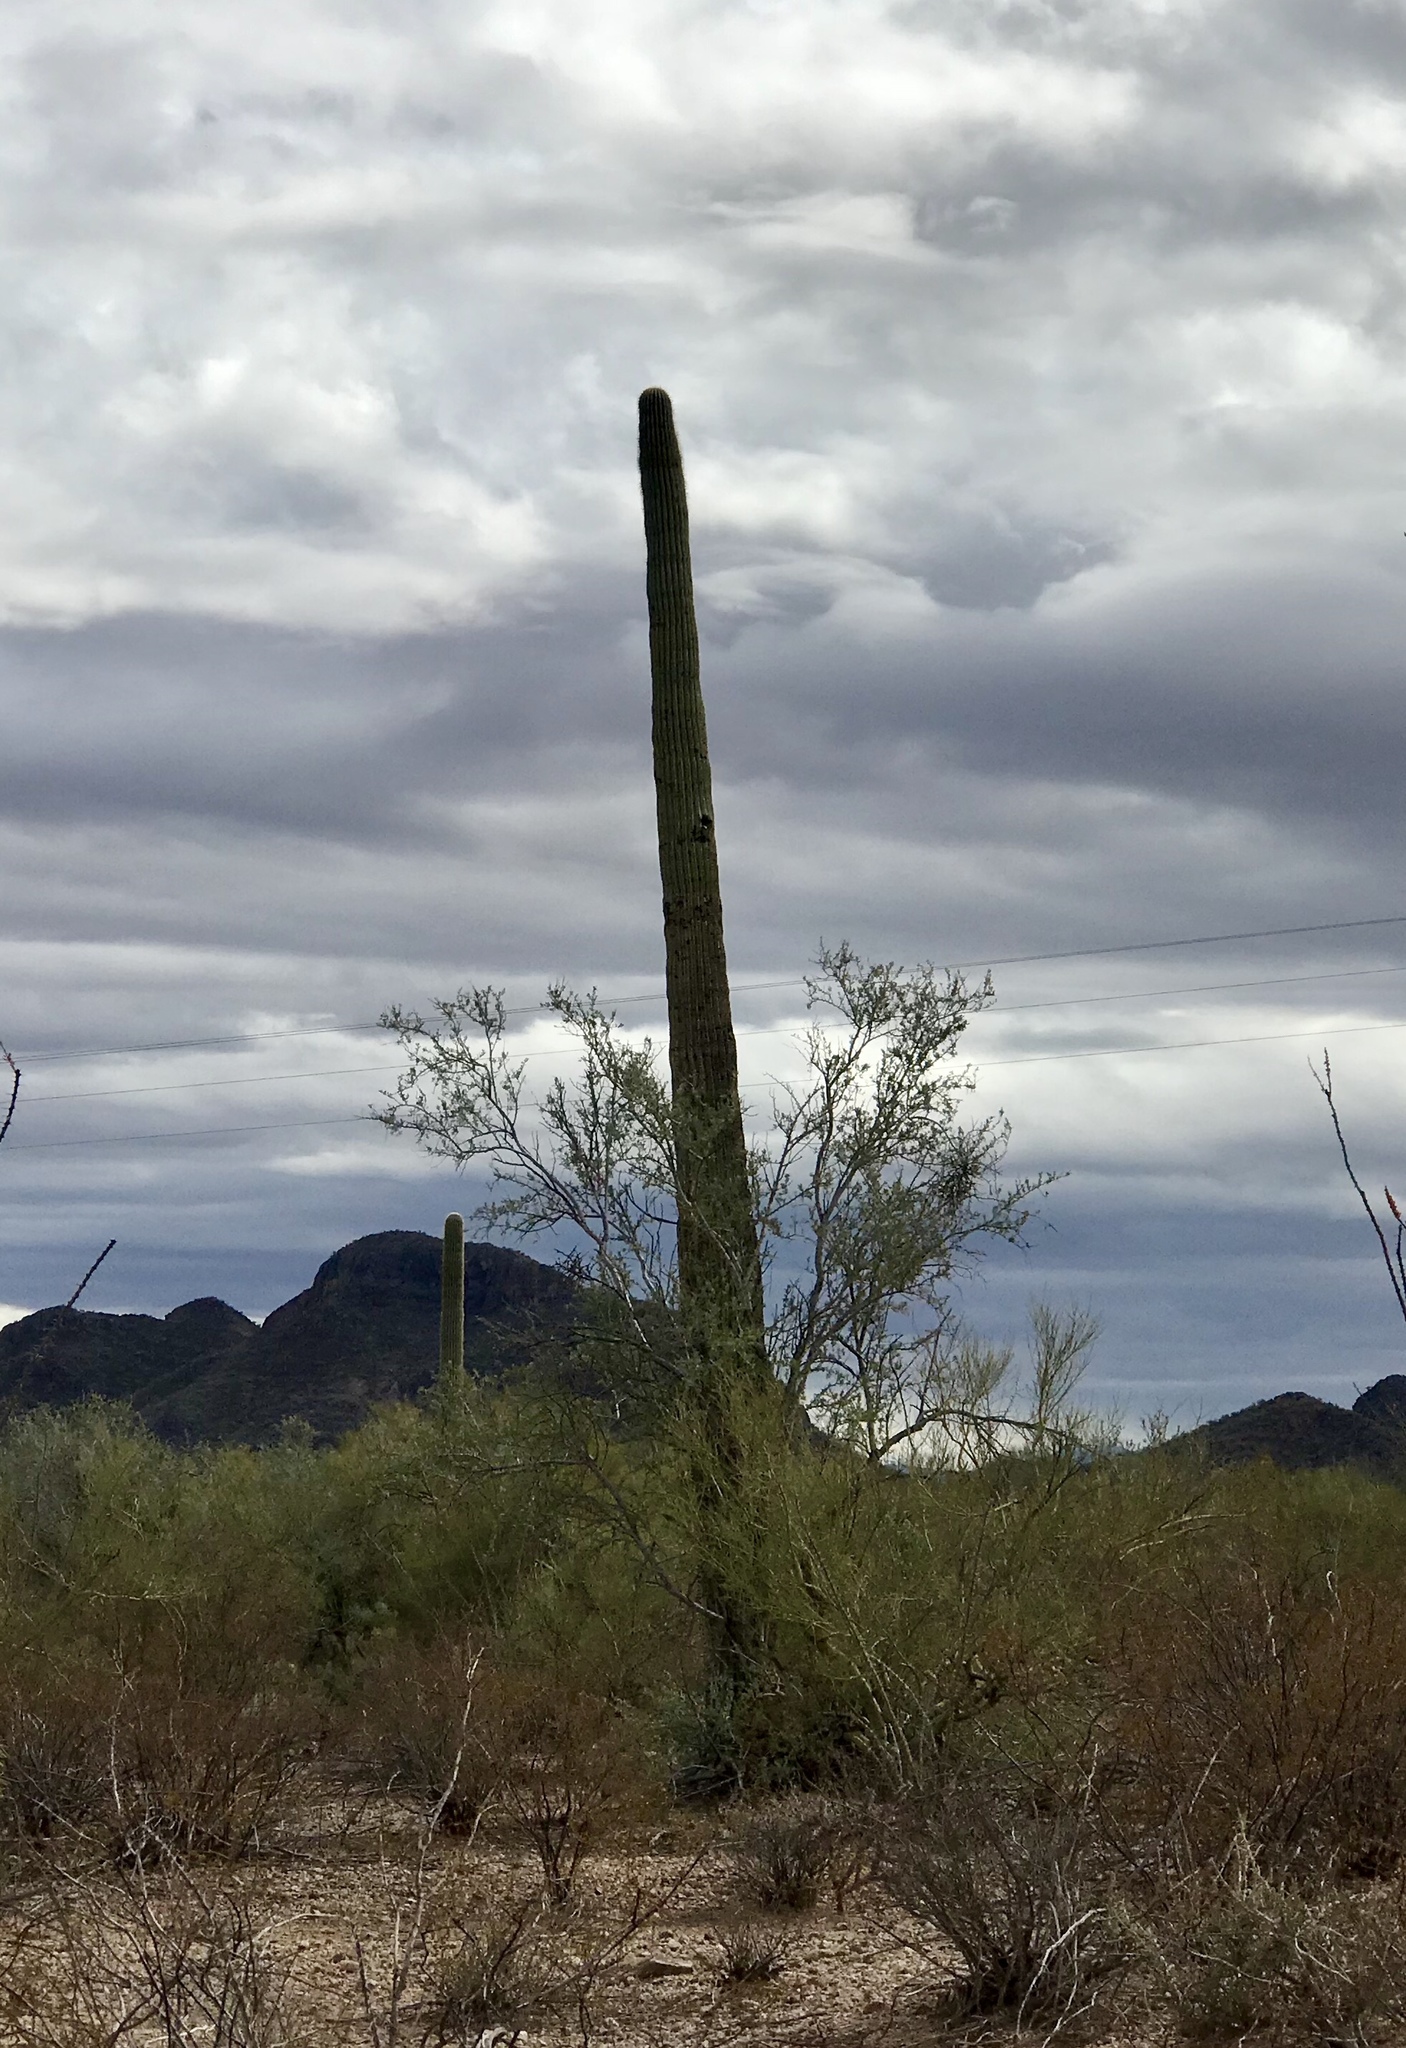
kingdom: Plantae
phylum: Tracheophyta
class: Magnoliopsida
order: Caryophyllales
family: Cactaceae
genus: Carnegiea
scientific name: Carnegiea gigantea
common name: Saguaro
